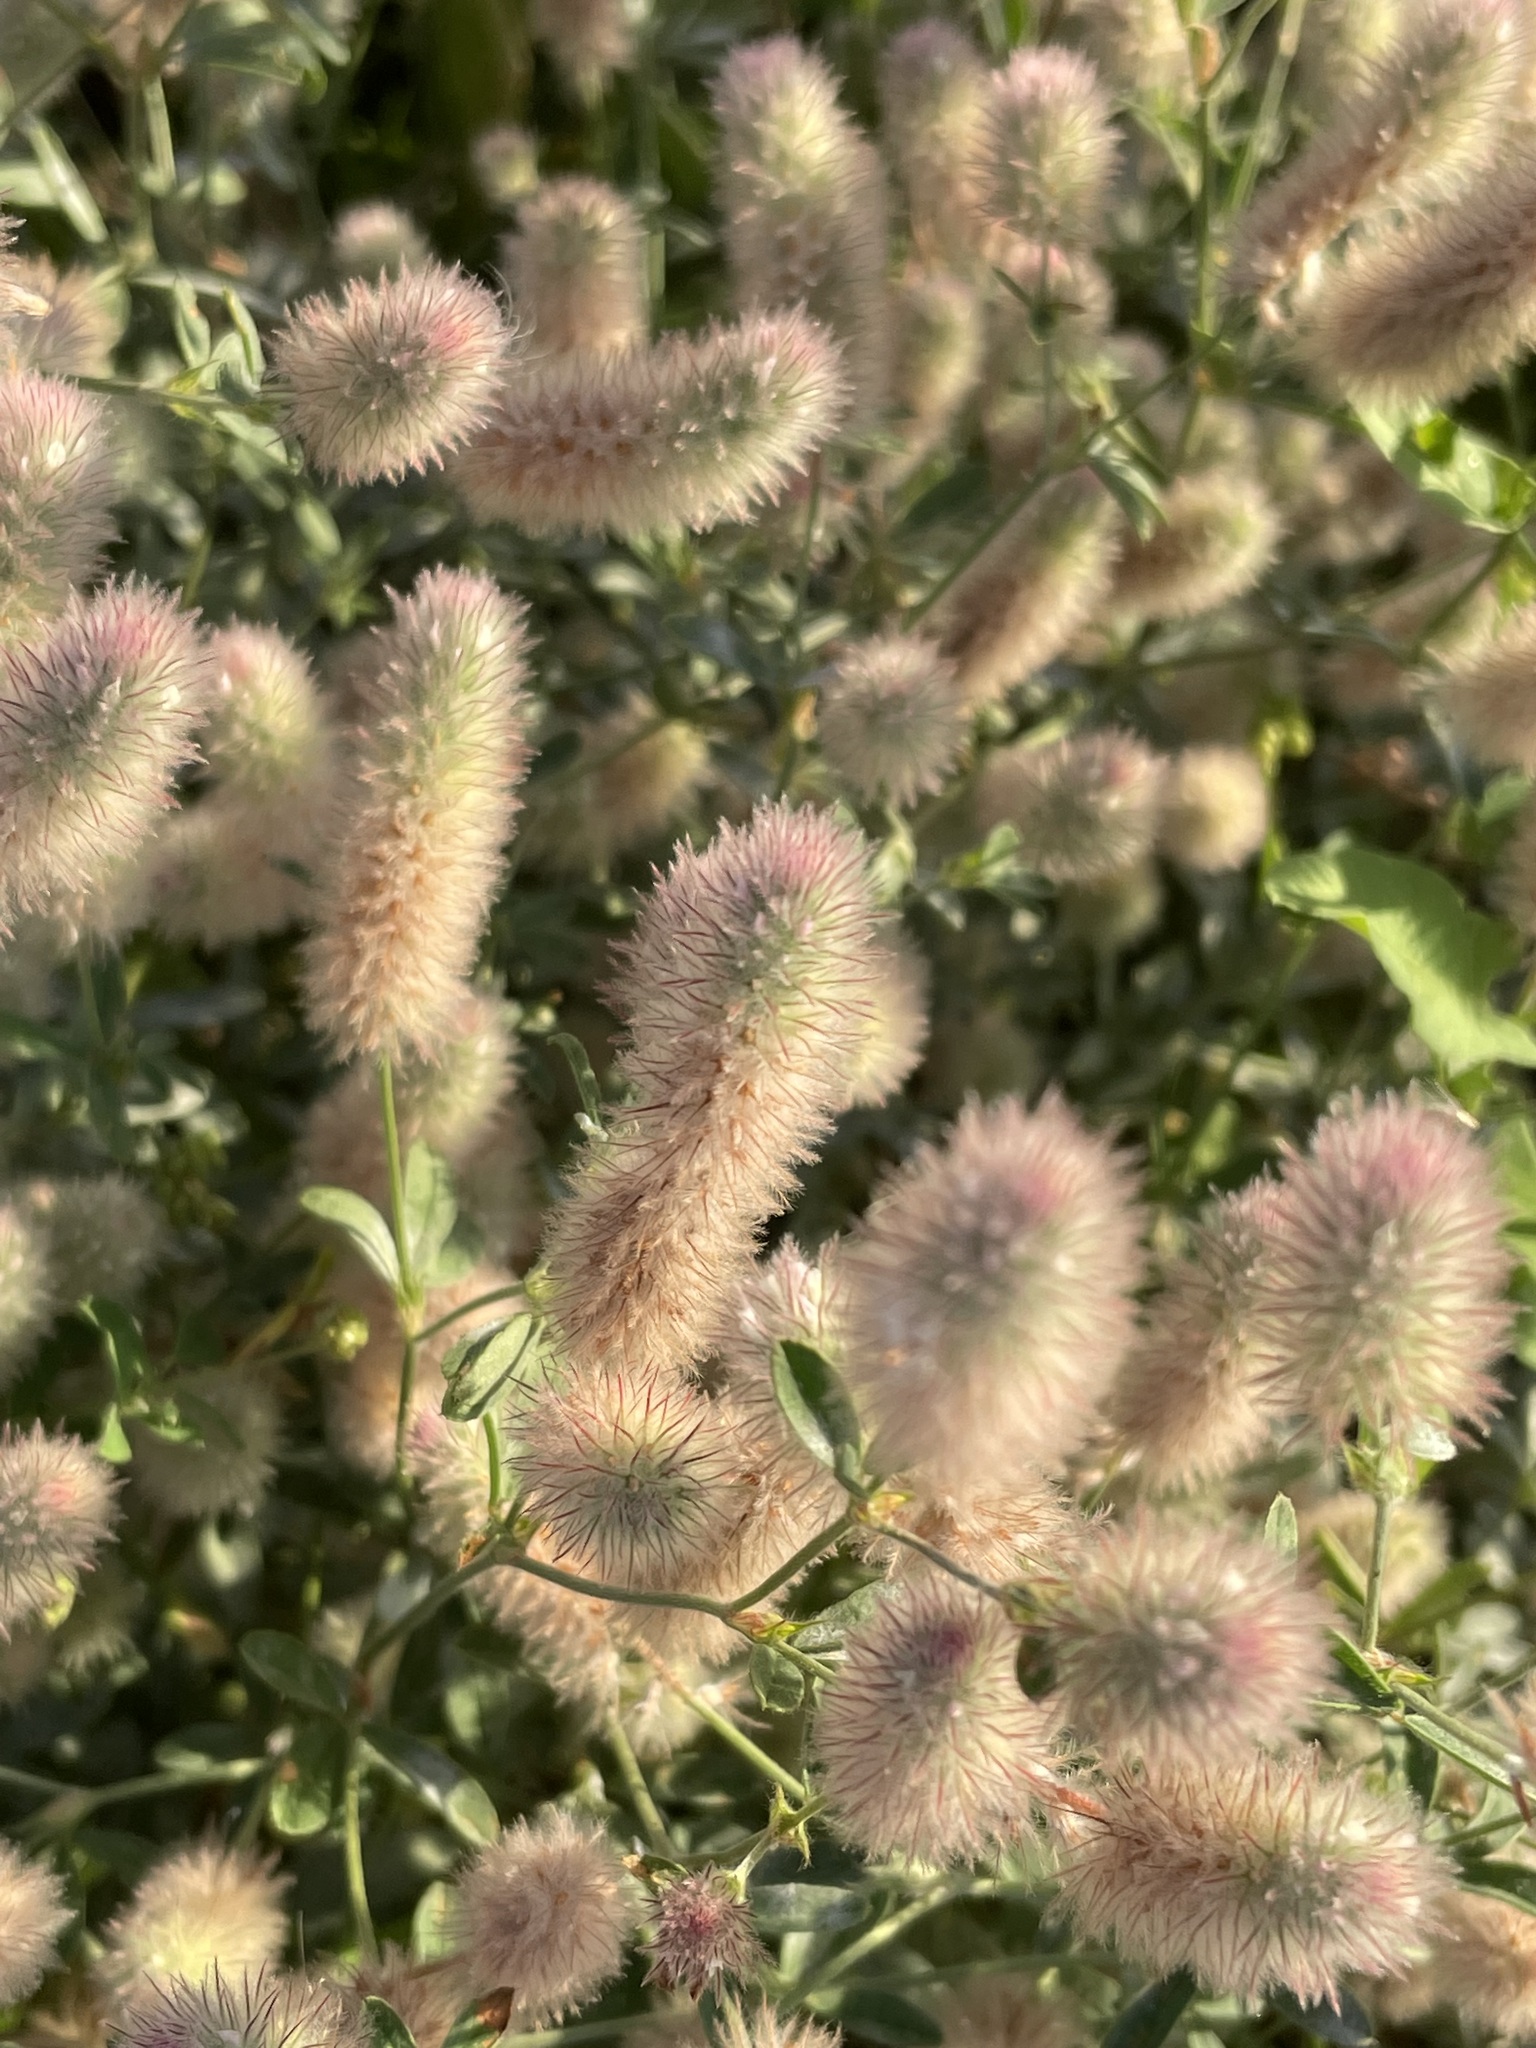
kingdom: Plantae
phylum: Tracheophyta
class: Magnoliopsida
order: Fabales
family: Fabaceae
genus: Trifolium
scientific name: Trifolium arvense
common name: Hare's-foot clover
